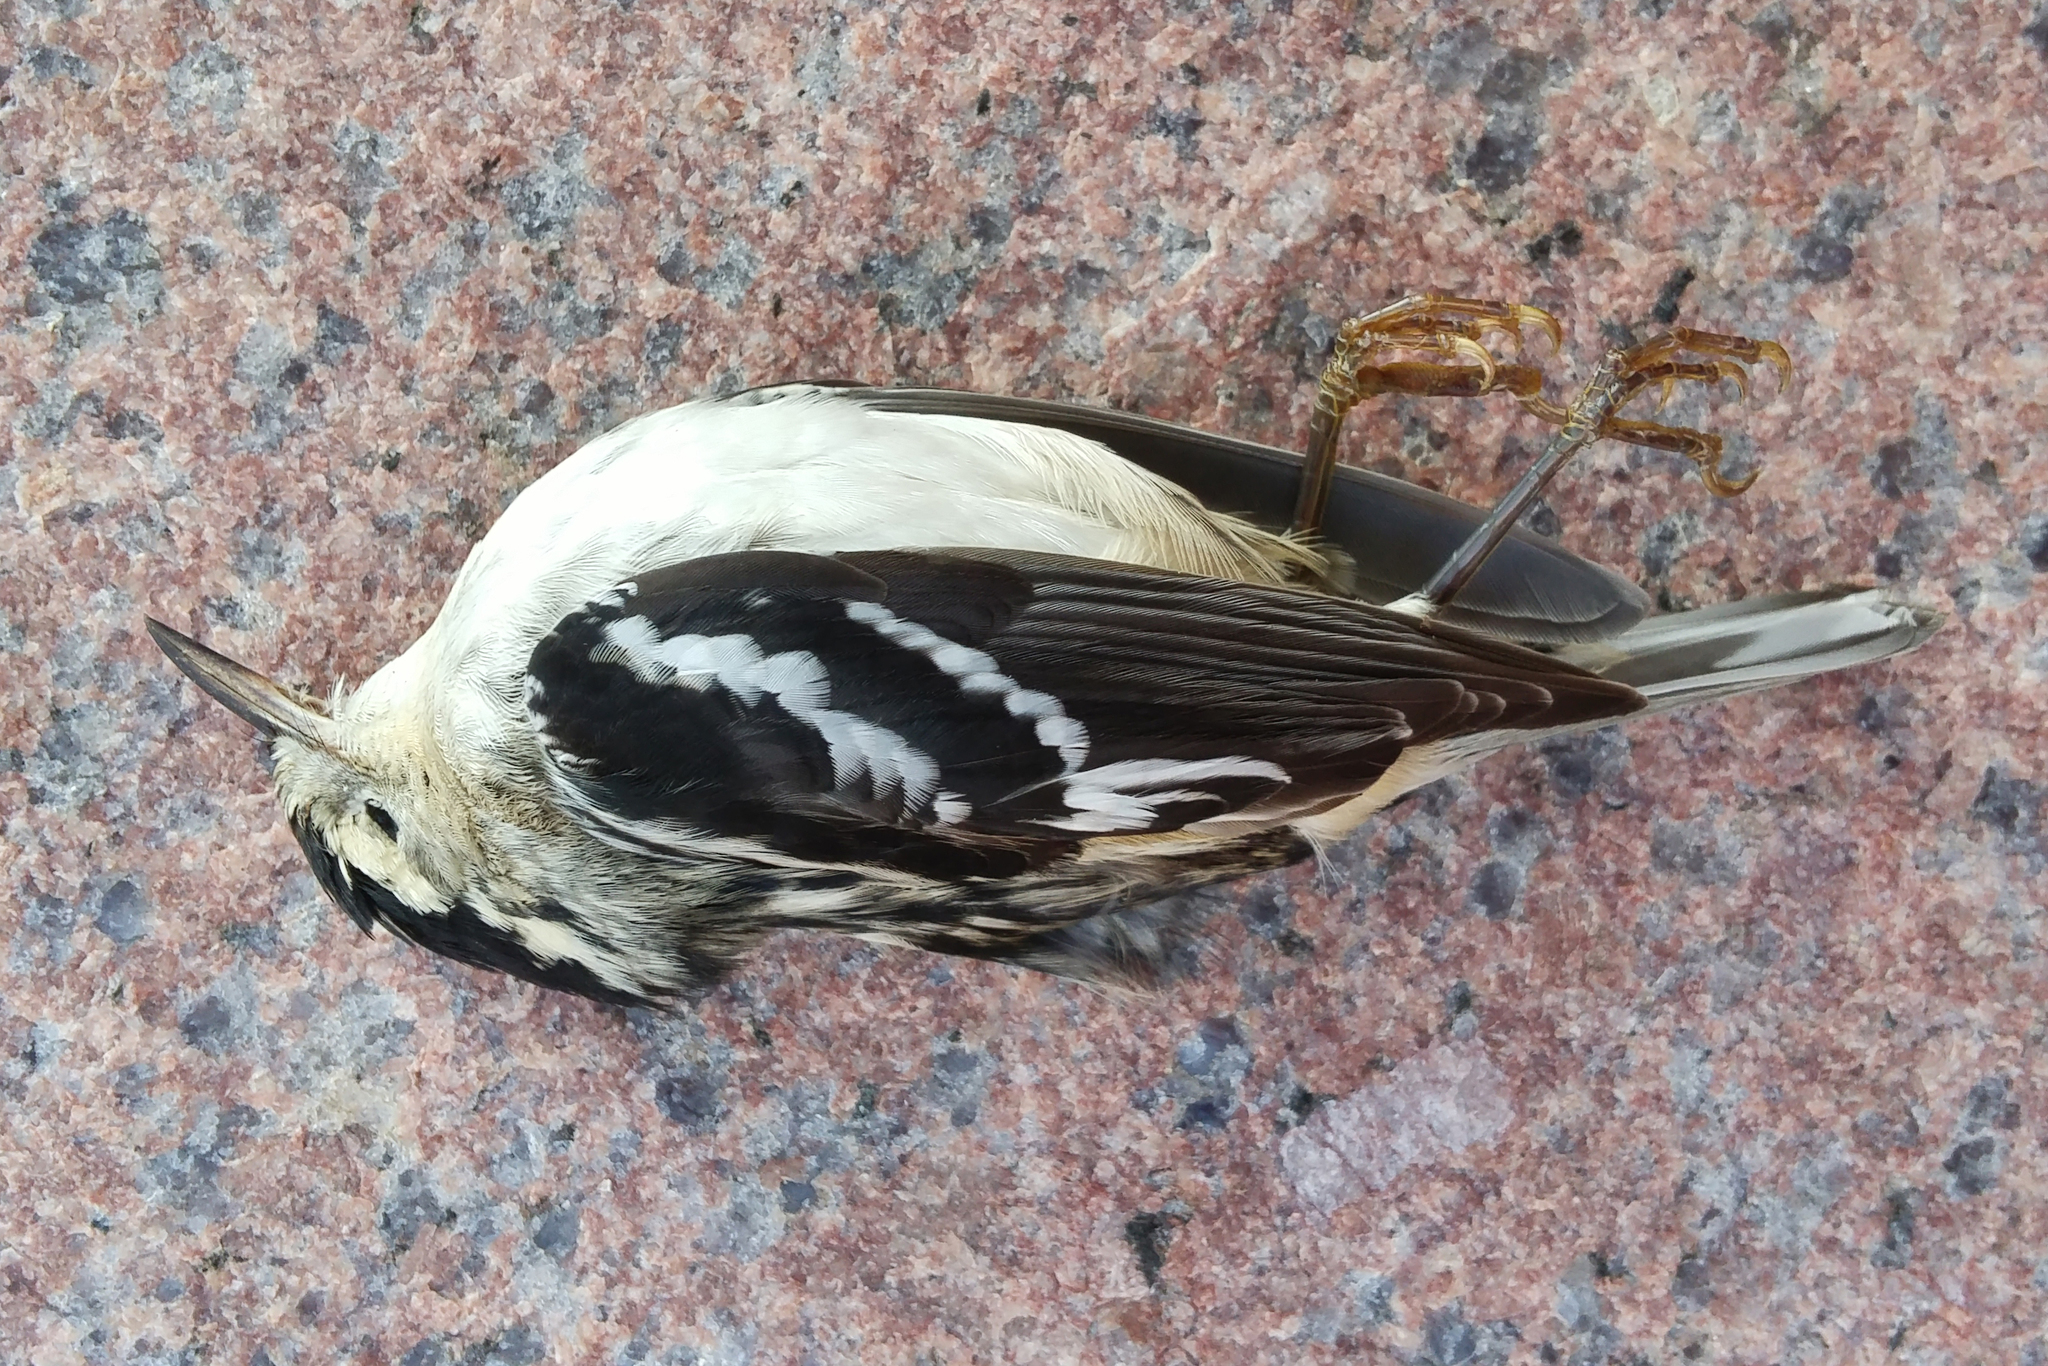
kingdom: Animalia
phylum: Chordata
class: Aves
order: Passeriformes
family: Parulidae
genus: Mniotilta
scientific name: Mniotilta varia
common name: Black-and-white warbler
